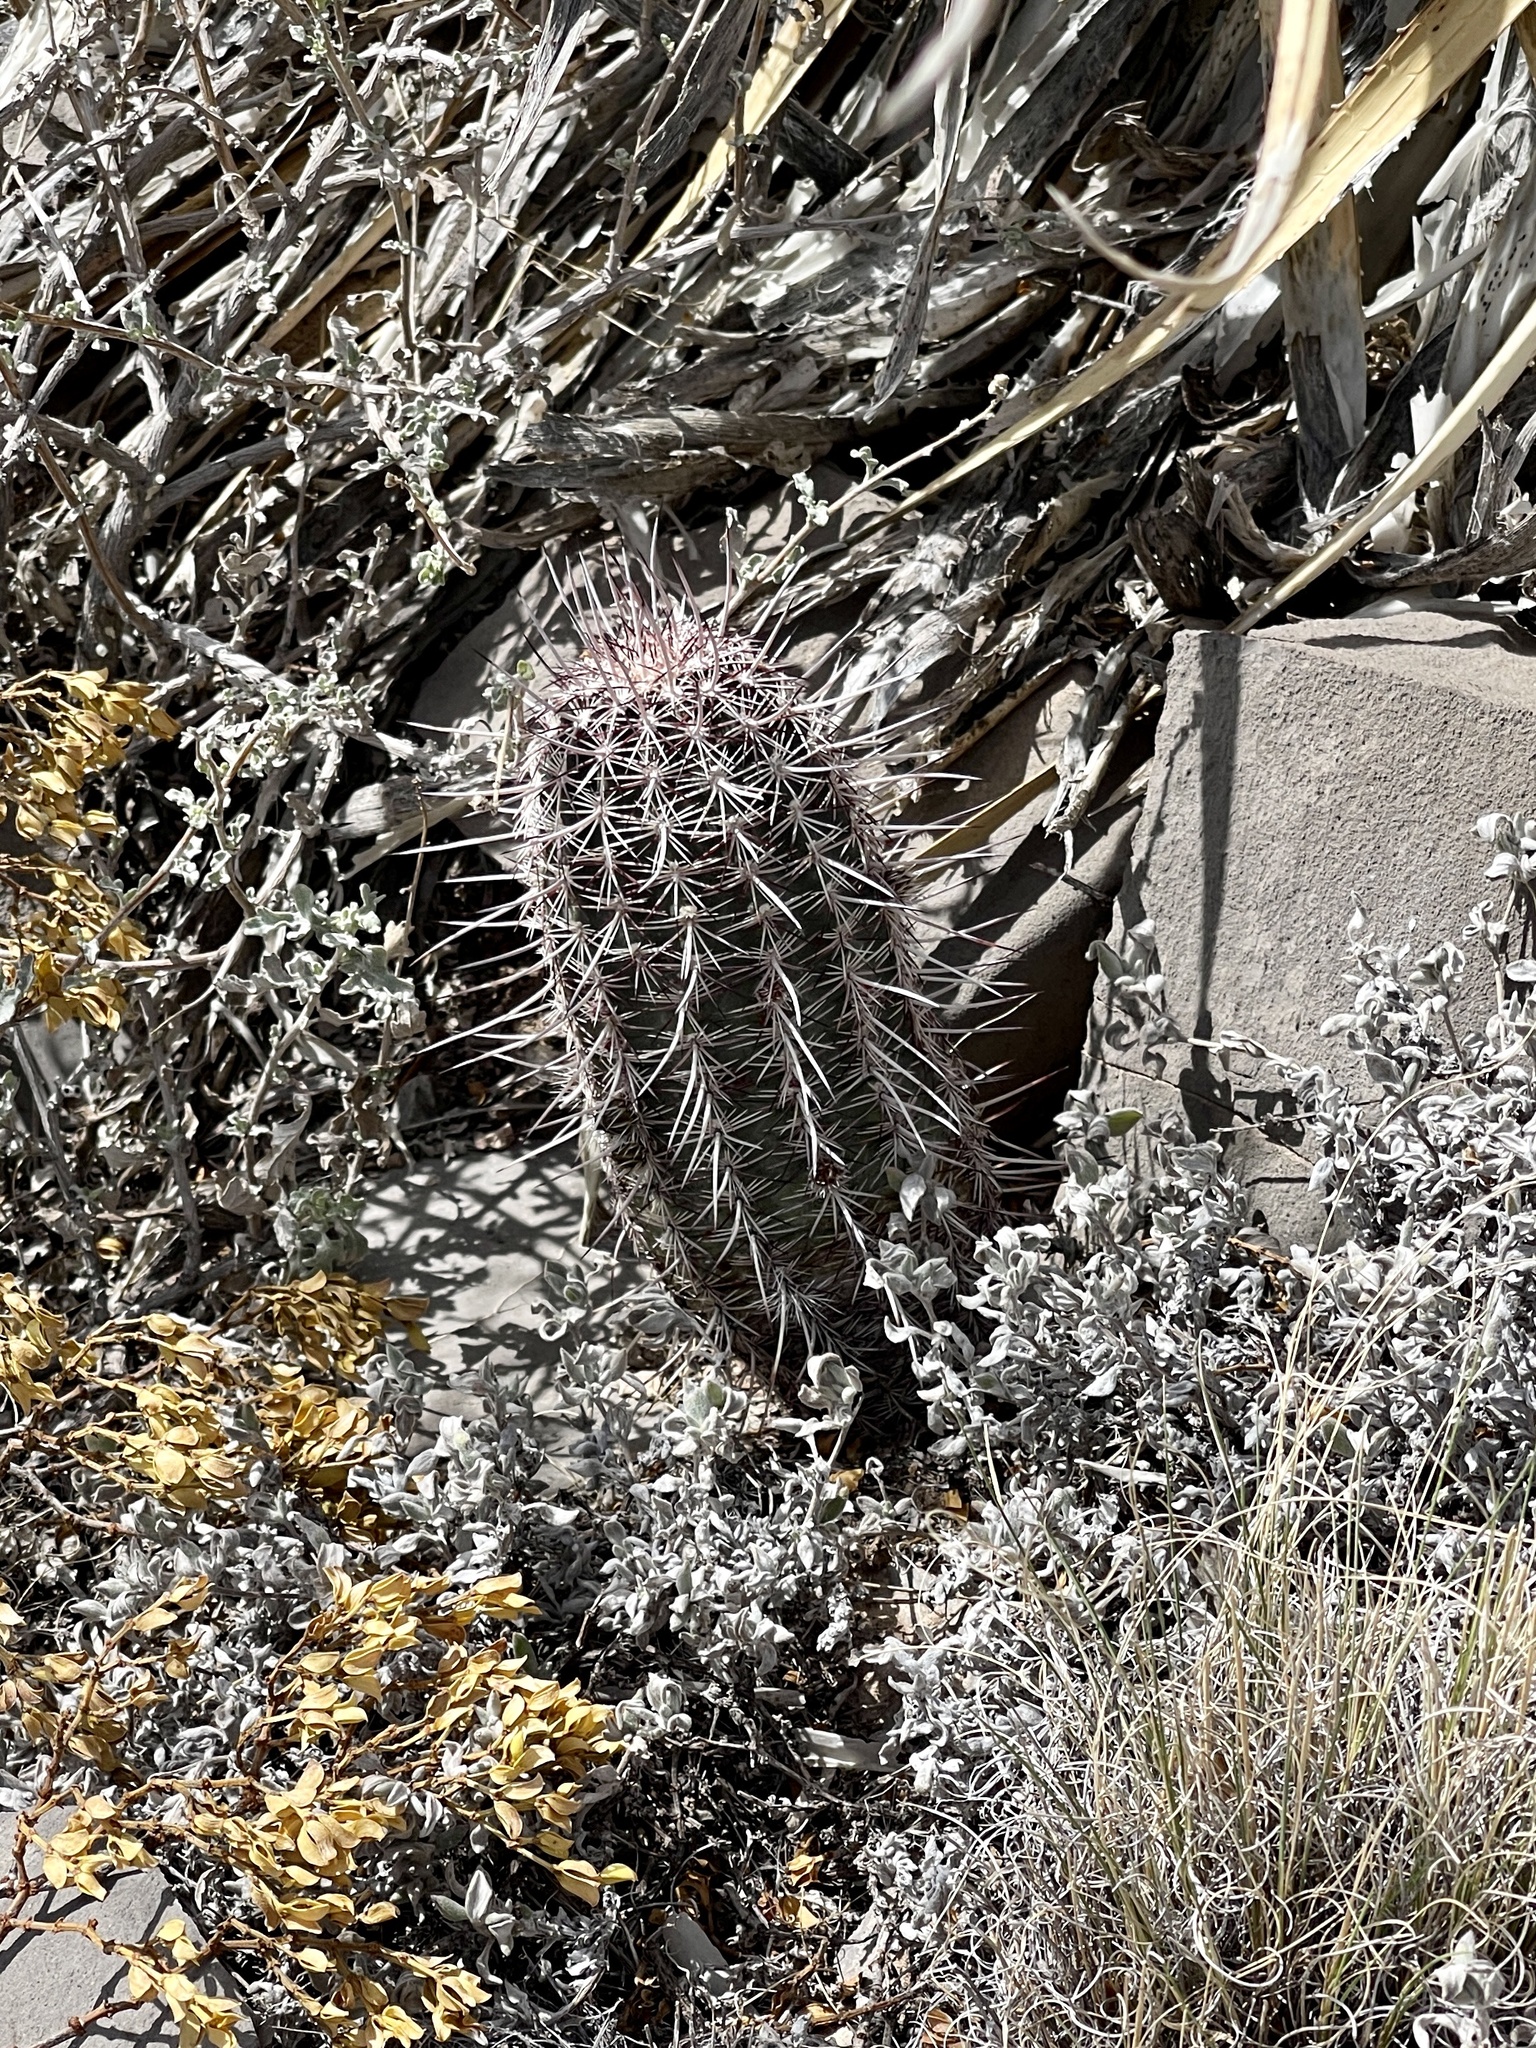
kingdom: Plantae
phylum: Tracheophyta
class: Magnoliopsida
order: Caryophyllales
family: Cactaceae
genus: Echinocereus
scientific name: Echinocereus viridiflorus
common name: Nylon hedgehog cactus
